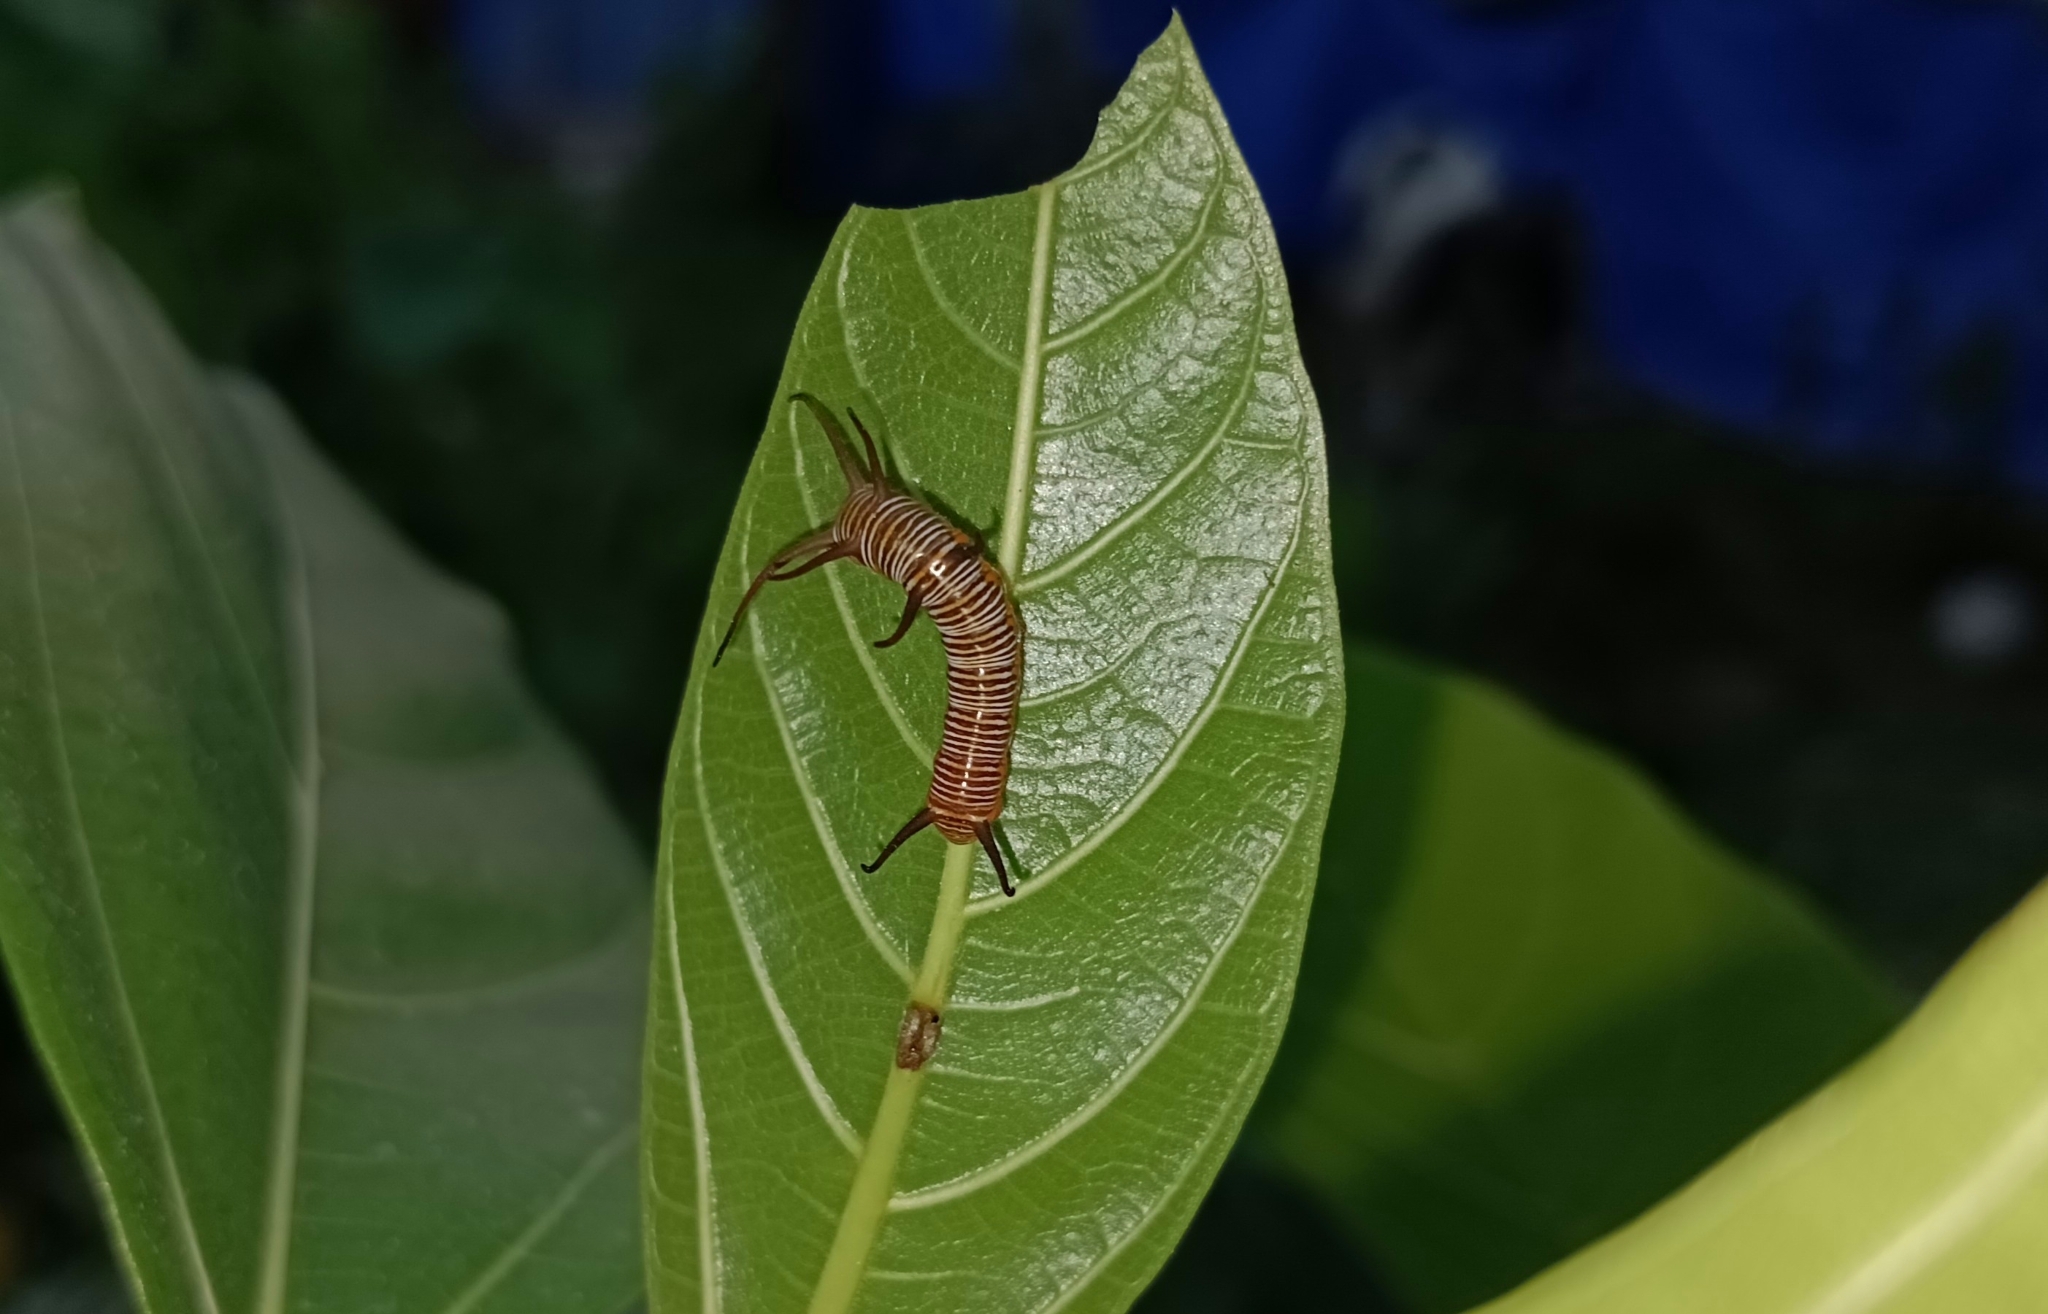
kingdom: Animalia
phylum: Arthropoda
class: Insecta
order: Lepidoptera
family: Nymphalidae
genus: Euploea
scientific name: Euploea core
